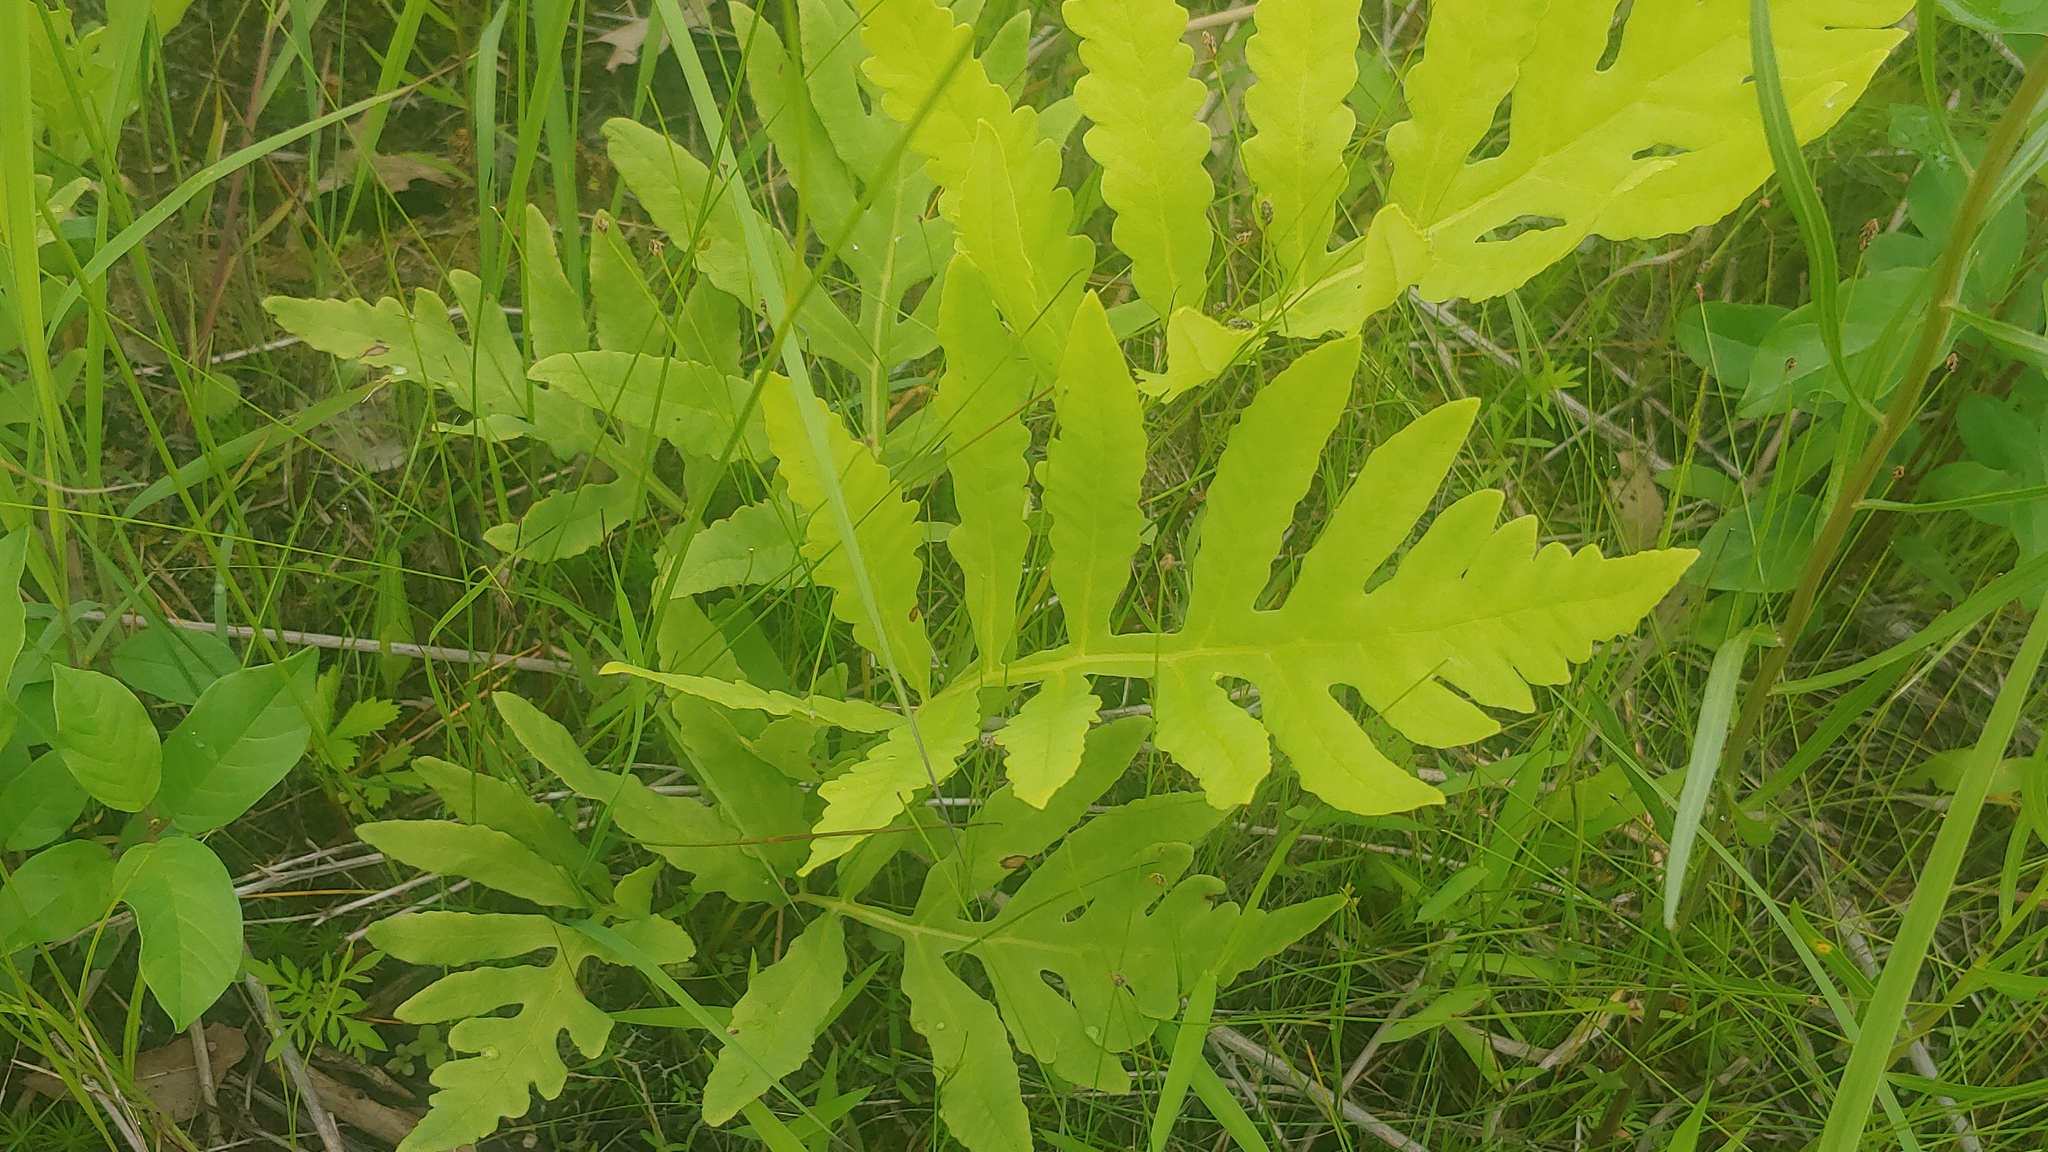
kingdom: Plantae
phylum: Tracheophyta
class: Polypodiopsida
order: Polypodiales
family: Onocleaceae
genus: Onoclea
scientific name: Onoclea sensibilis
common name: Sensitive fern
